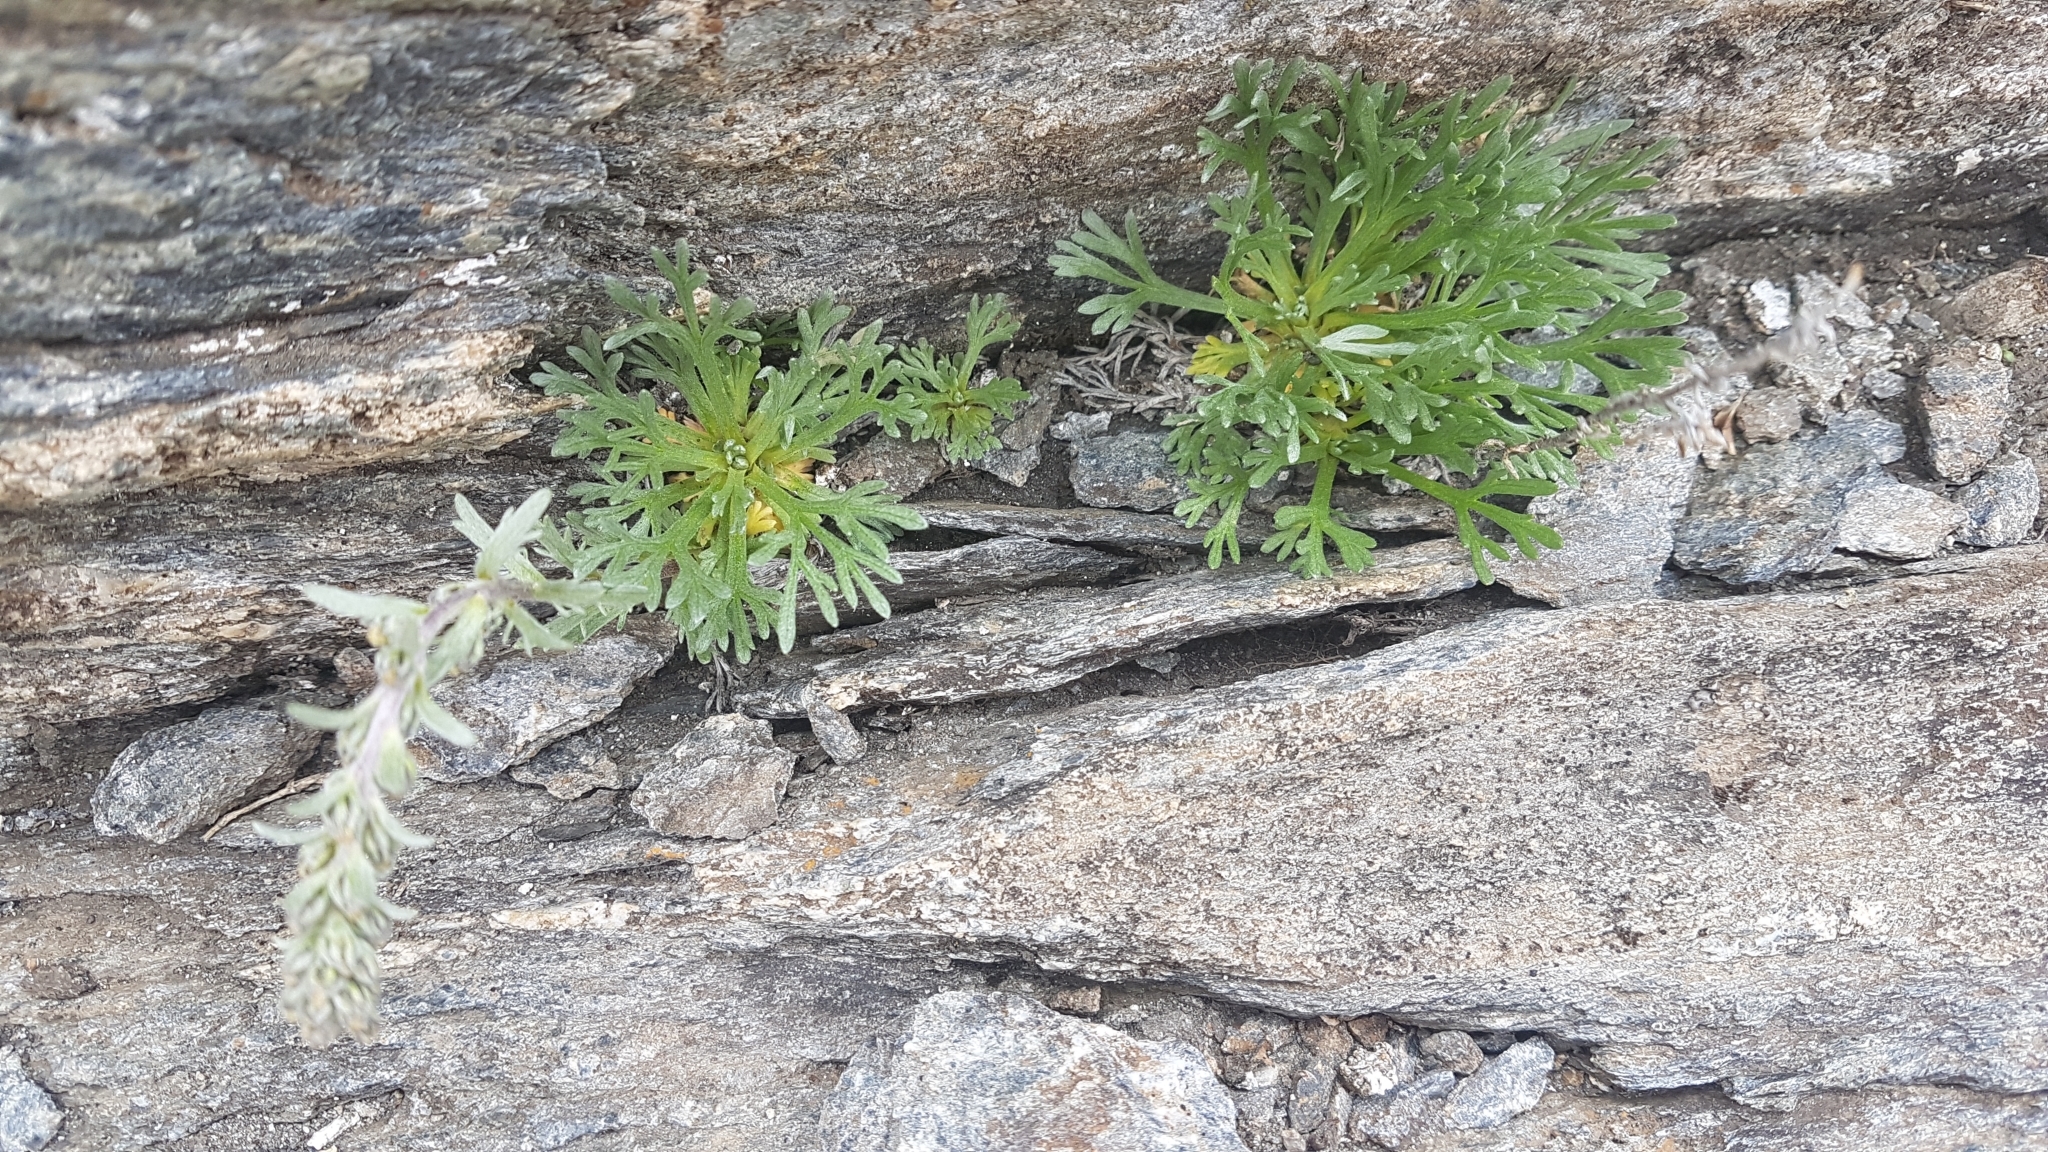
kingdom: Plantae
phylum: Tracheophyta
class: Magnoliopsida
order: Asterales
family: Asteraceae
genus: Artemisia
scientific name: Artemisia genipi
